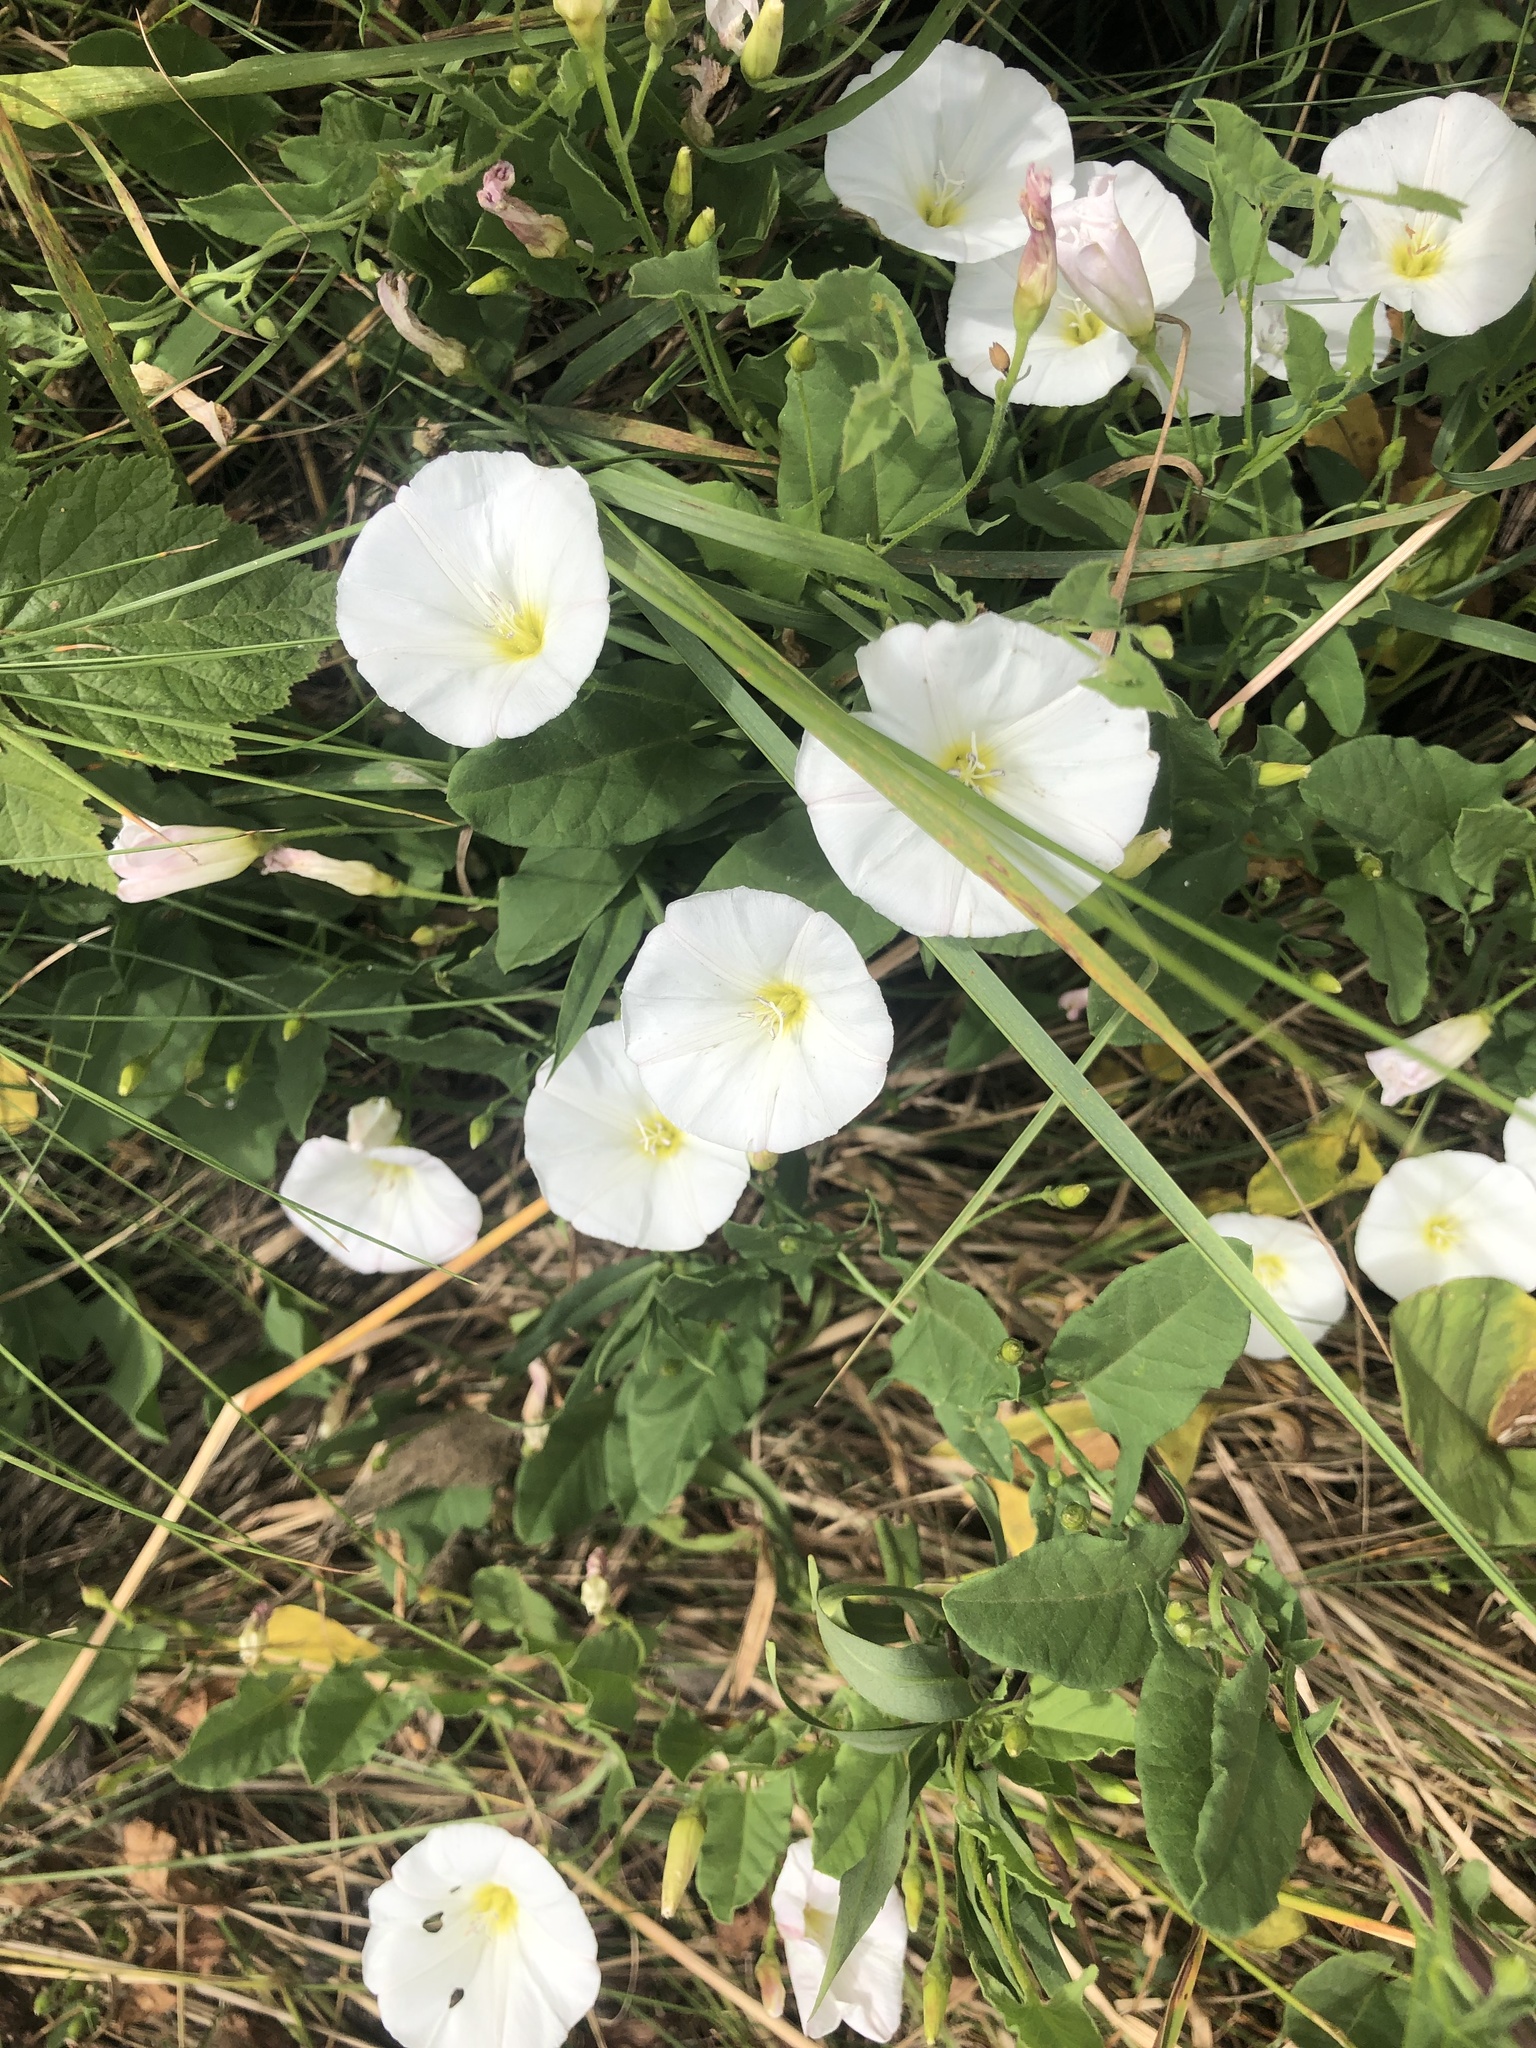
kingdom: Plantae
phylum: Tracheophyta
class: Magnoliopsida
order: Solanales
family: Convolvulaceae
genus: Convolvulus
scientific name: Convolvulus arvensis
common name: Field bindweed
